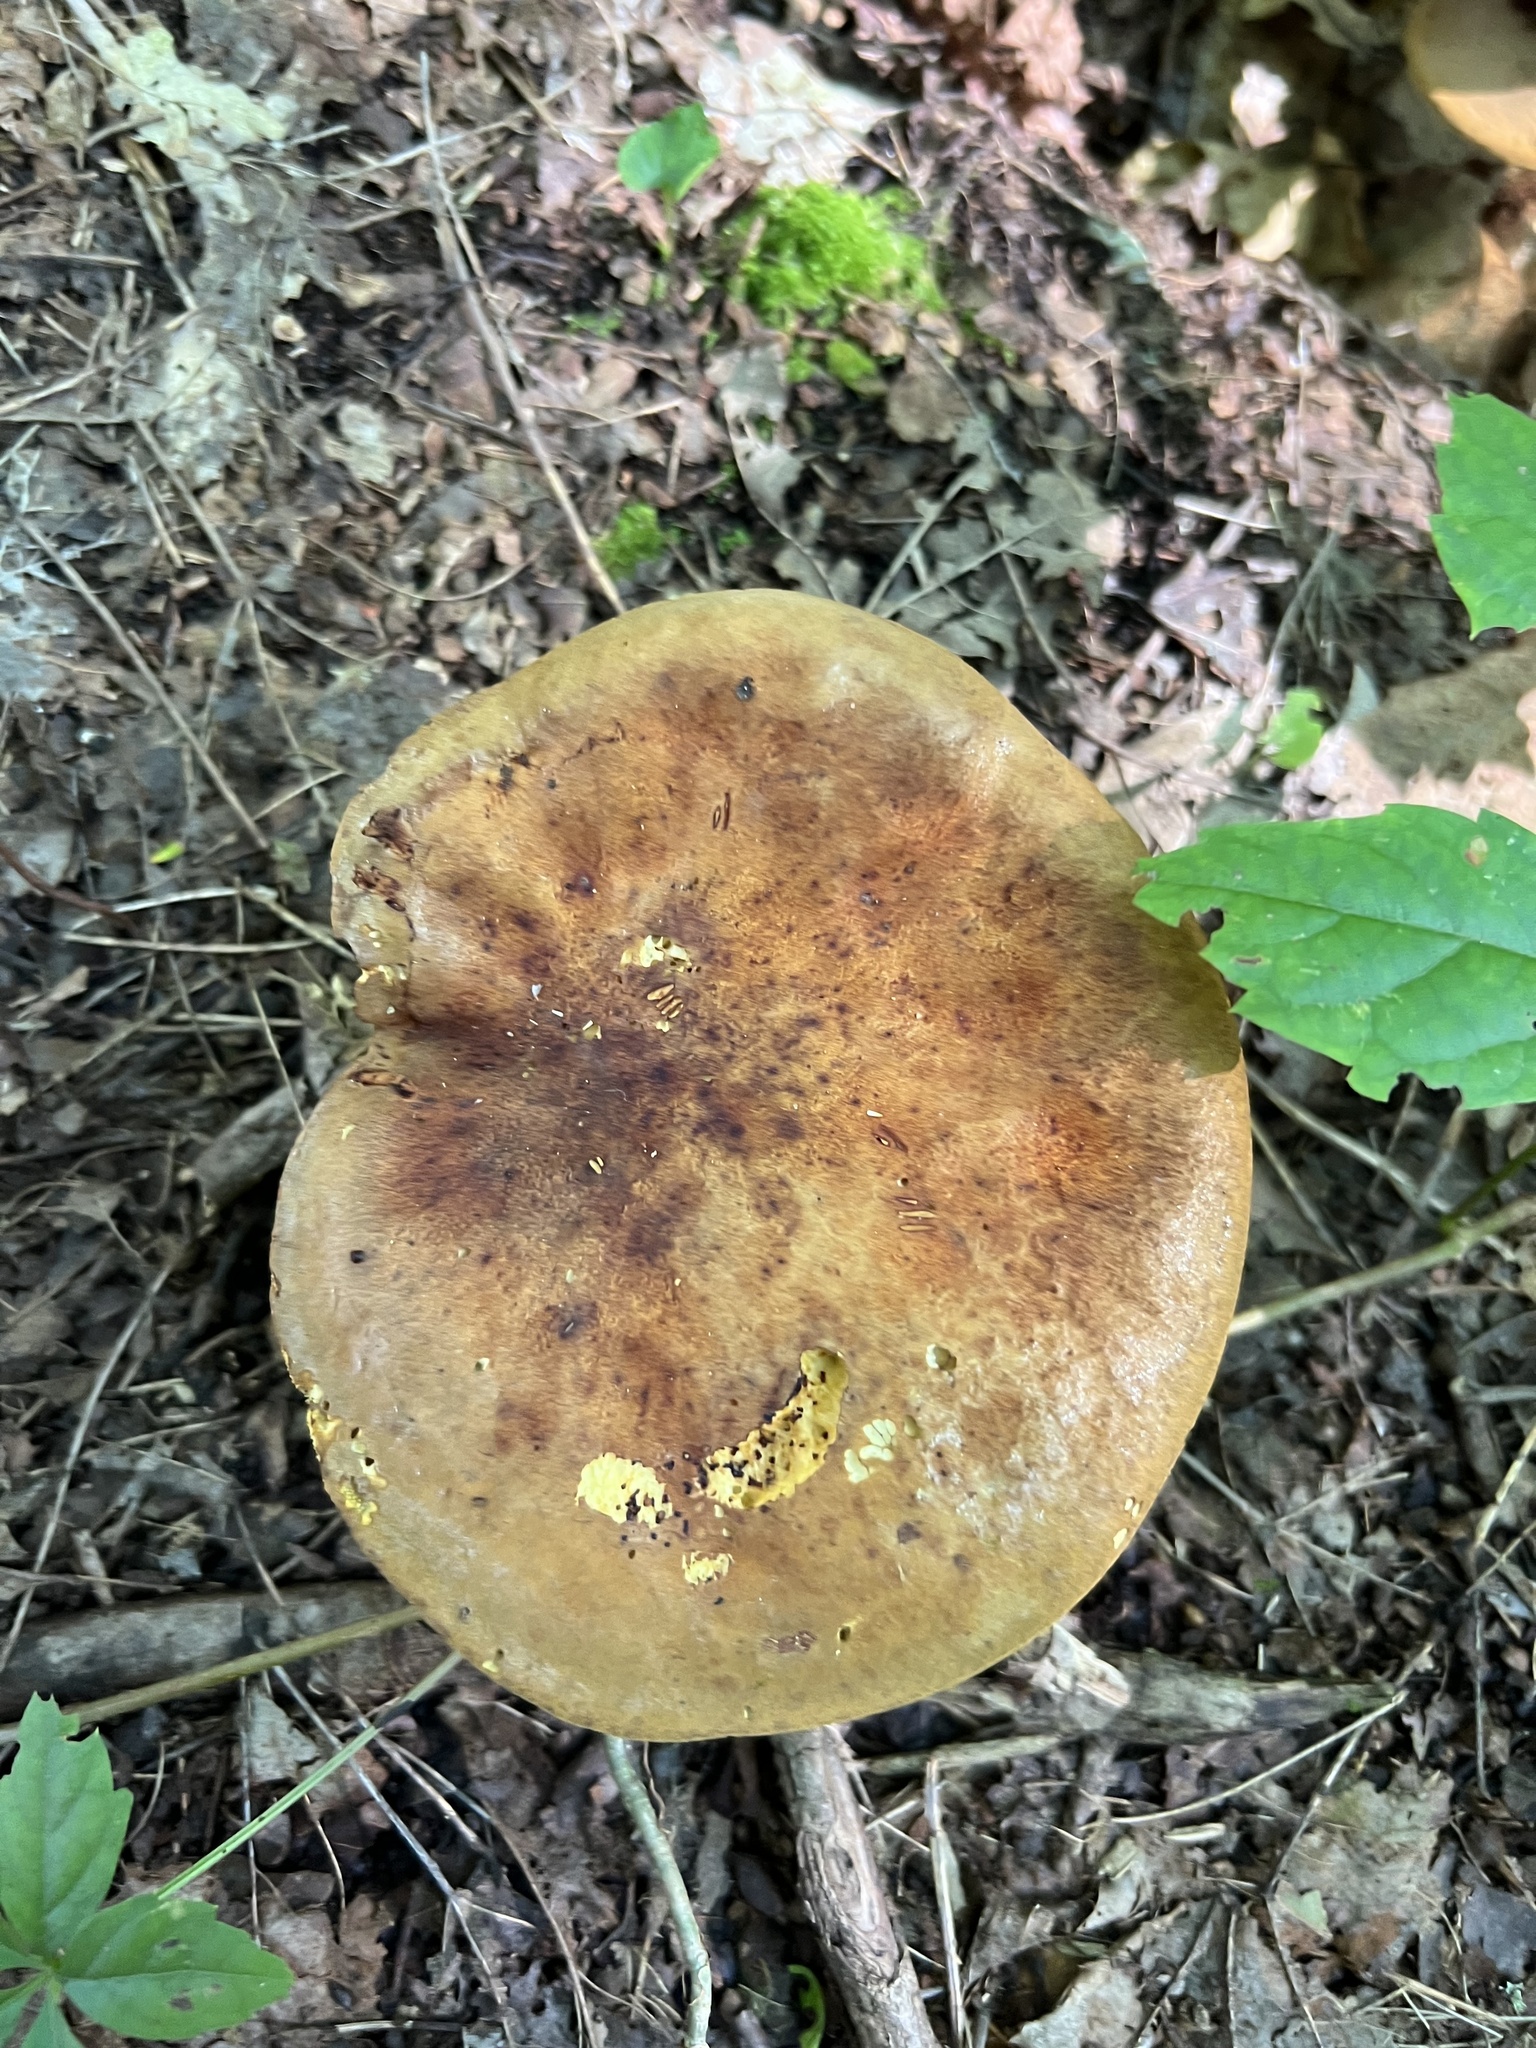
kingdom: Fungi
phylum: Basidiomycota
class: Agaricomycetes
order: Boletales
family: Boletinellaceae
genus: Boletinellus
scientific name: Boletinellus merulioides
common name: Ash tree bolete
